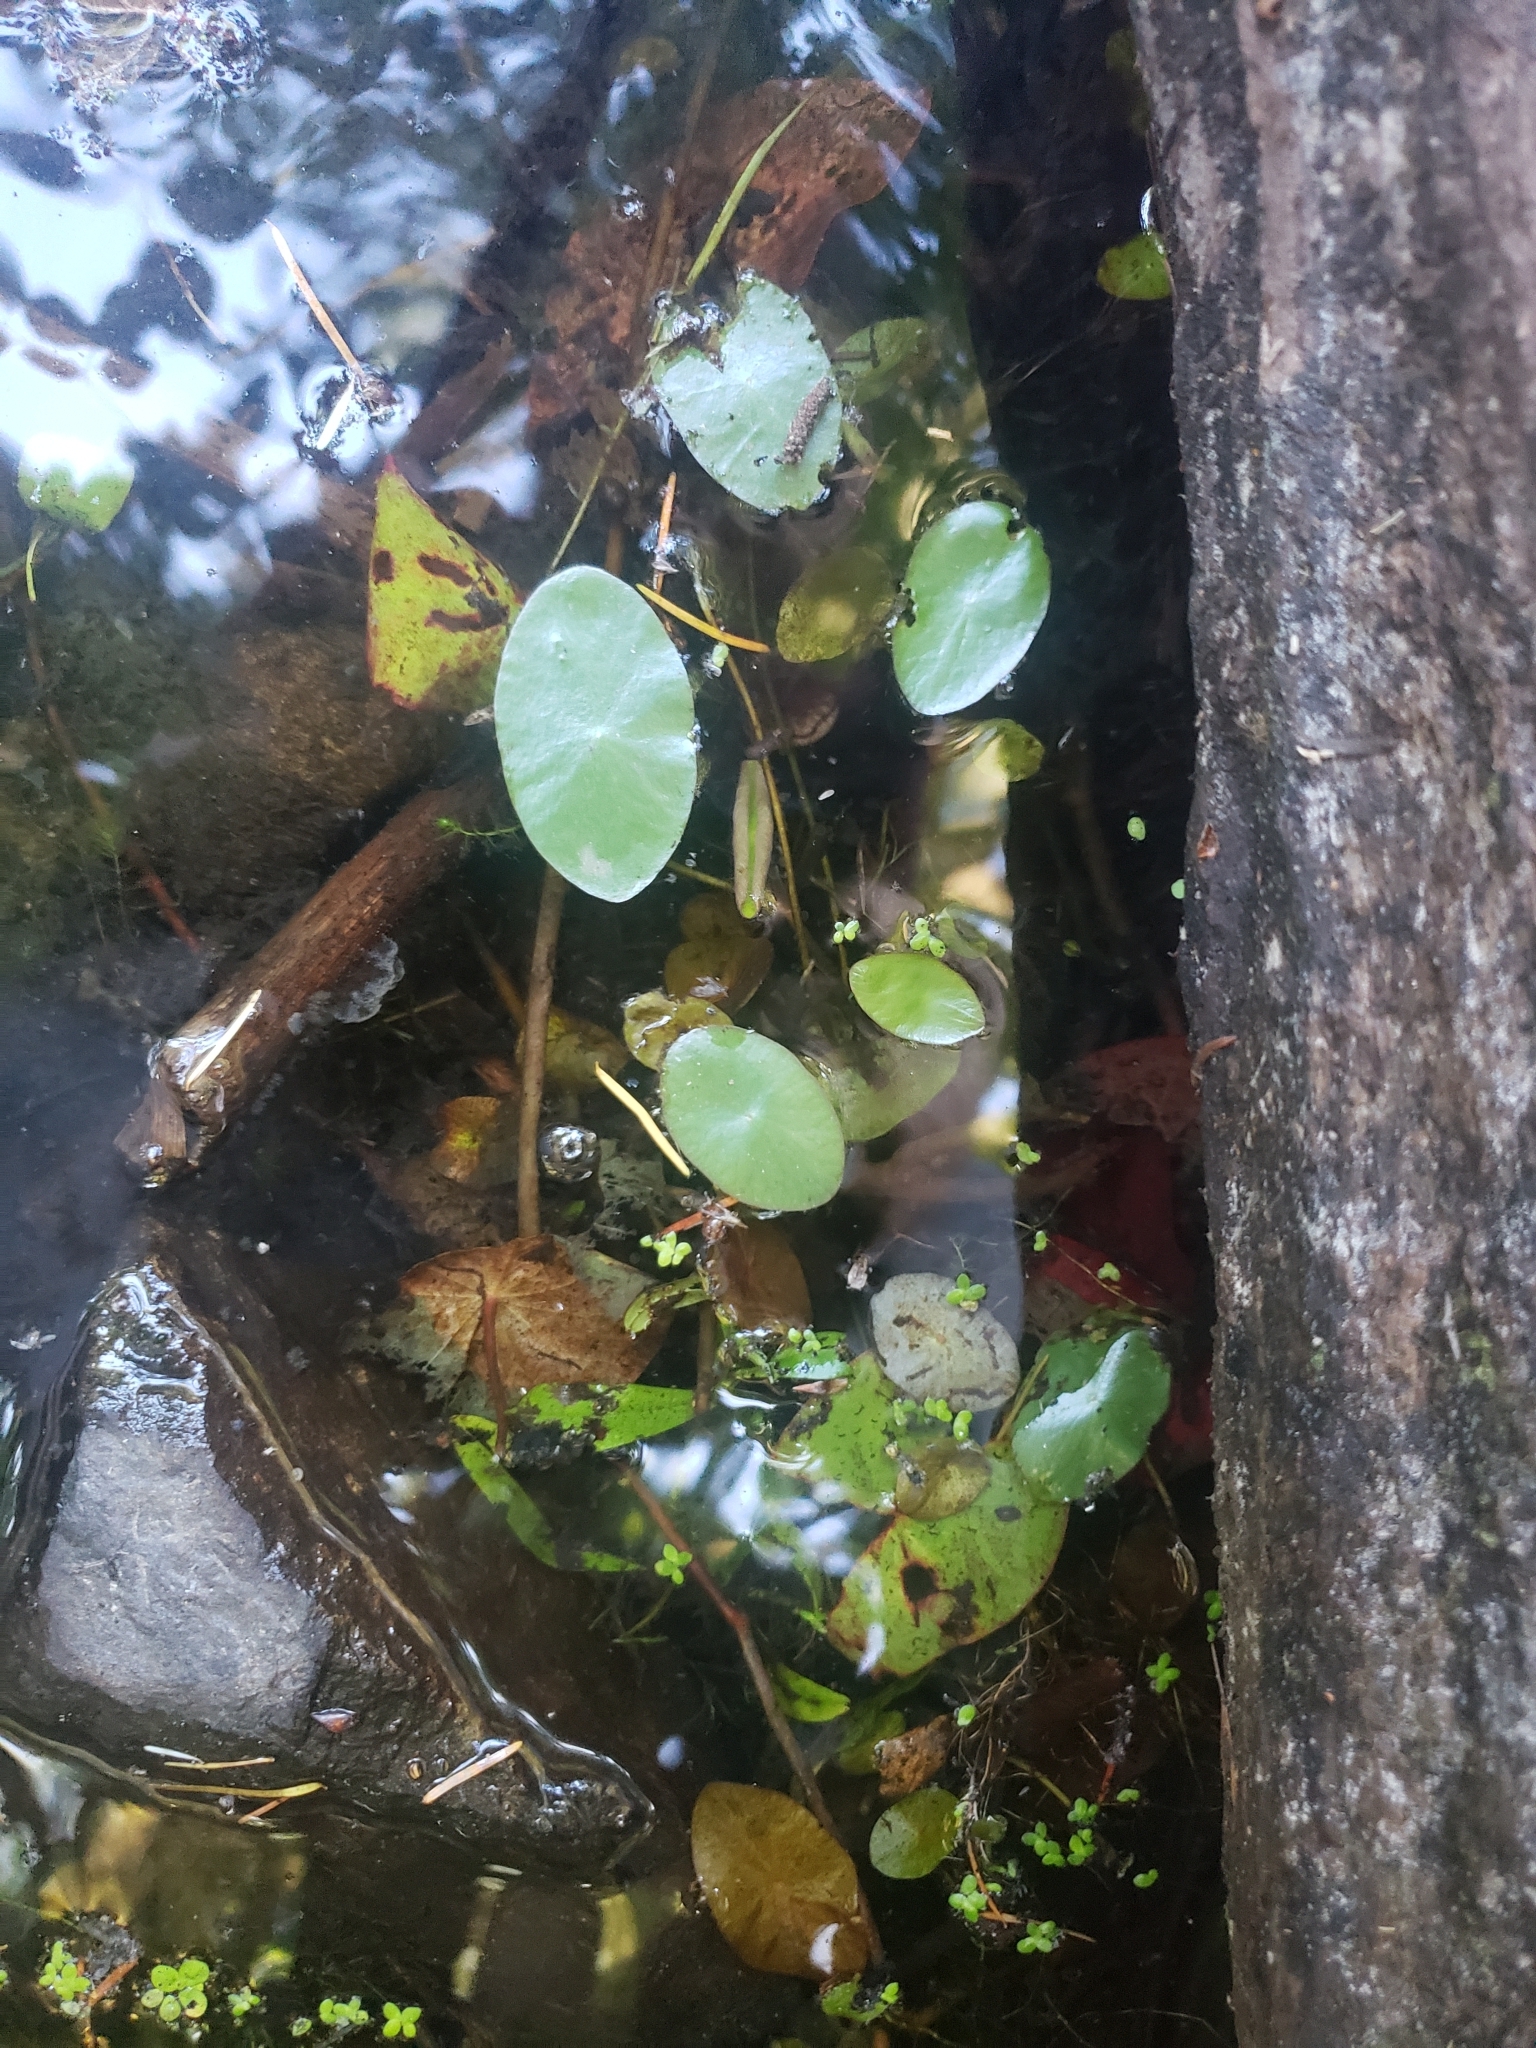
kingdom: Plantae
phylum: Tracheophyta
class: Magnoliopsida
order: Nymphaeales
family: Cabombaceae
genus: Brasenia
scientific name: Brasenia schreberi
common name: Water-shield
